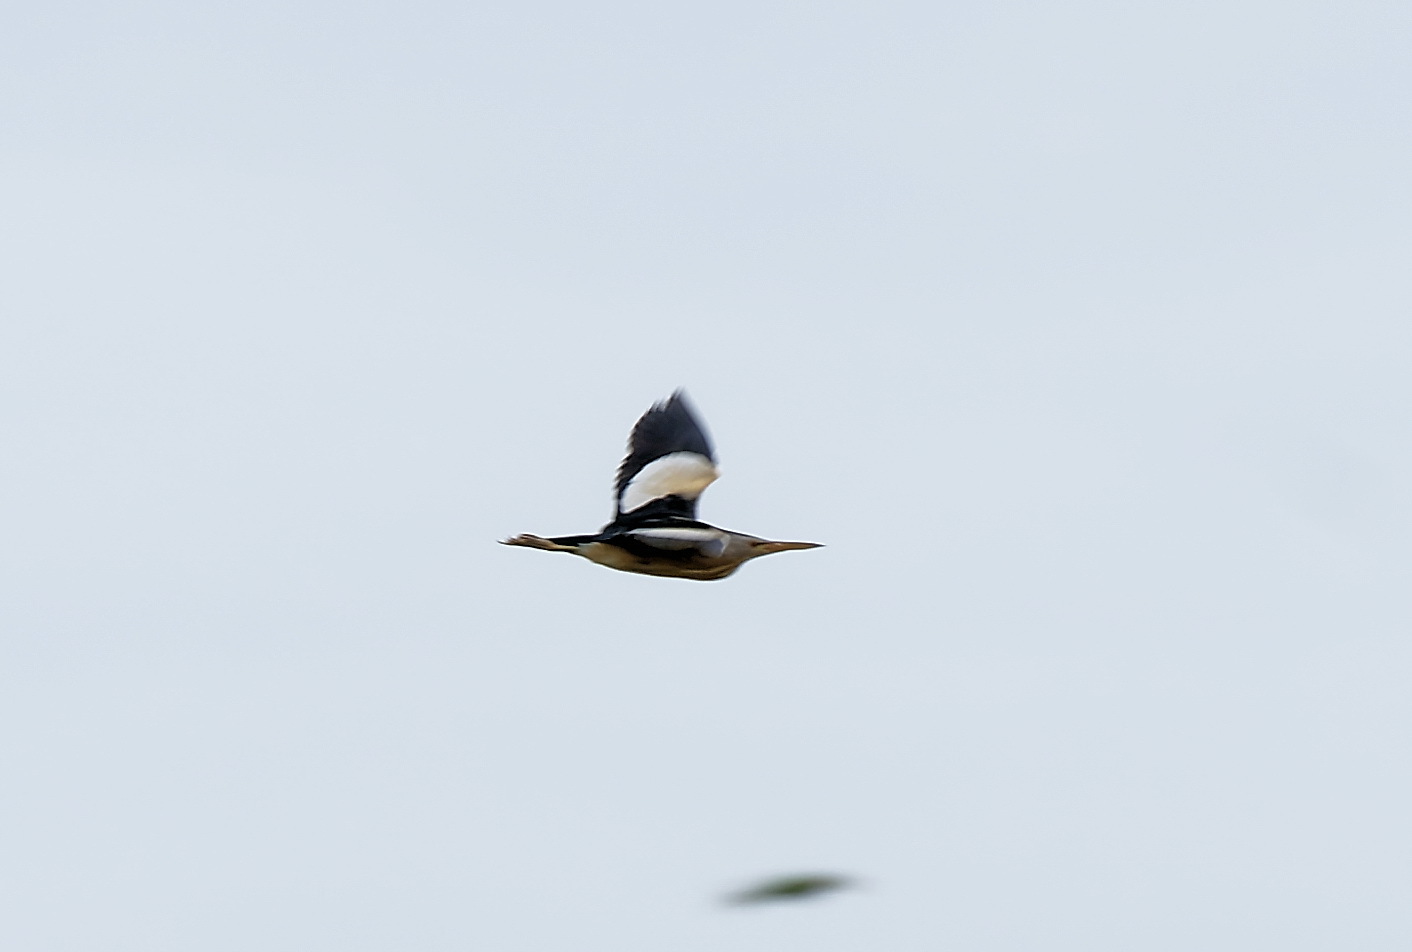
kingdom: Animalia
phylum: Chordata
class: Aves
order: Pelecaniformes
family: Ardeidae
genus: Ixobrychus
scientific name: Ixobrychus minutus
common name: Little bittern
